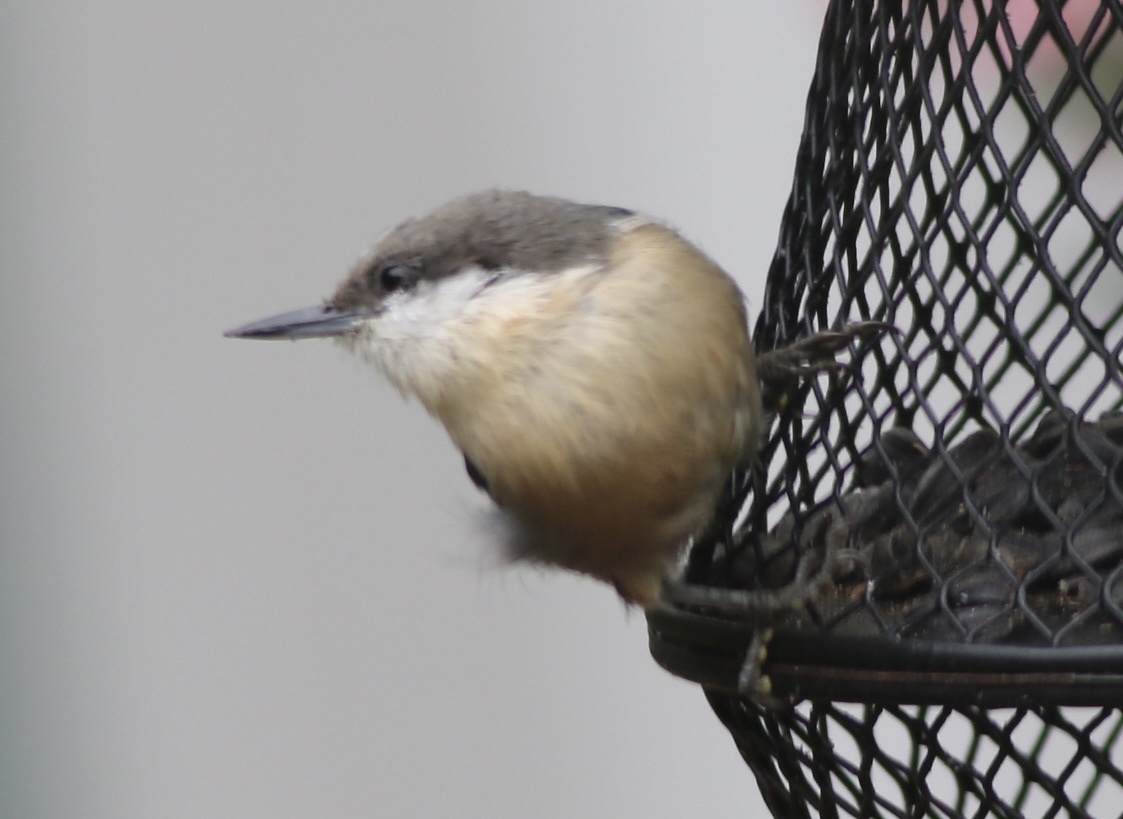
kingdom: Animalia
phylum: Chordata
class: Aves
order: Passeriformes
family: Sittidae
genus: Sitta
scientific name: Sitta pygmaea
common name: Pygmy nuthatch
